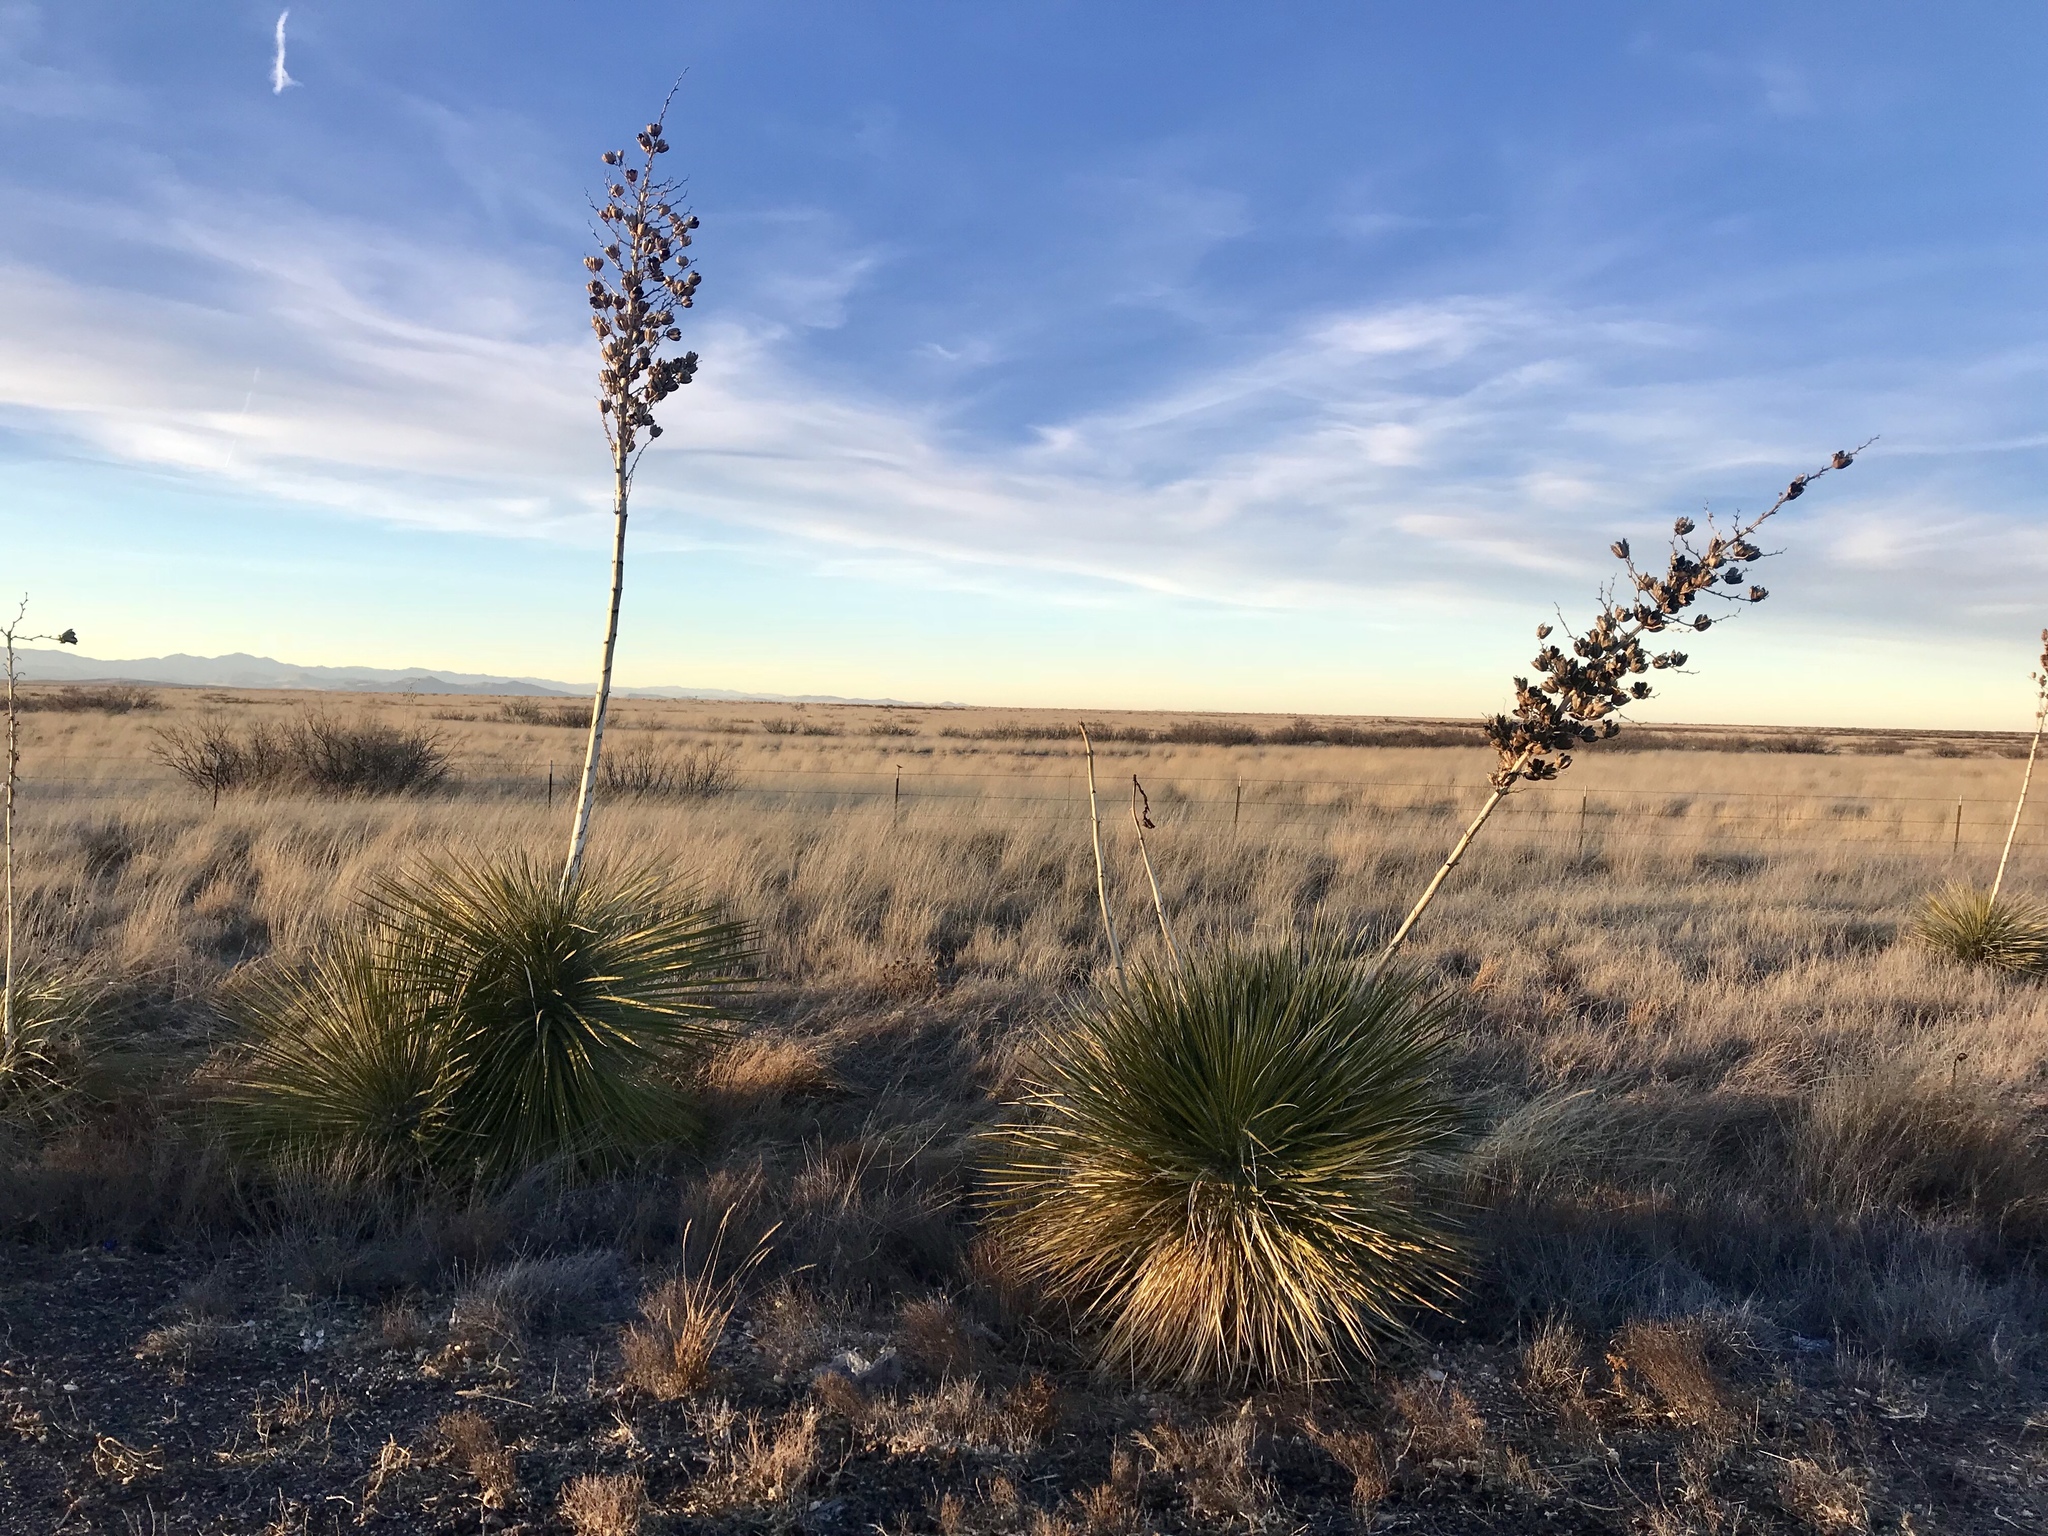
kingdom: Plantae
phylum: Tracheophyta
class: Liliopsida
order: Asparagales
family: Asparagaceae
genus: Yucca
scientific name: Yucca elata
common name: Palmella
